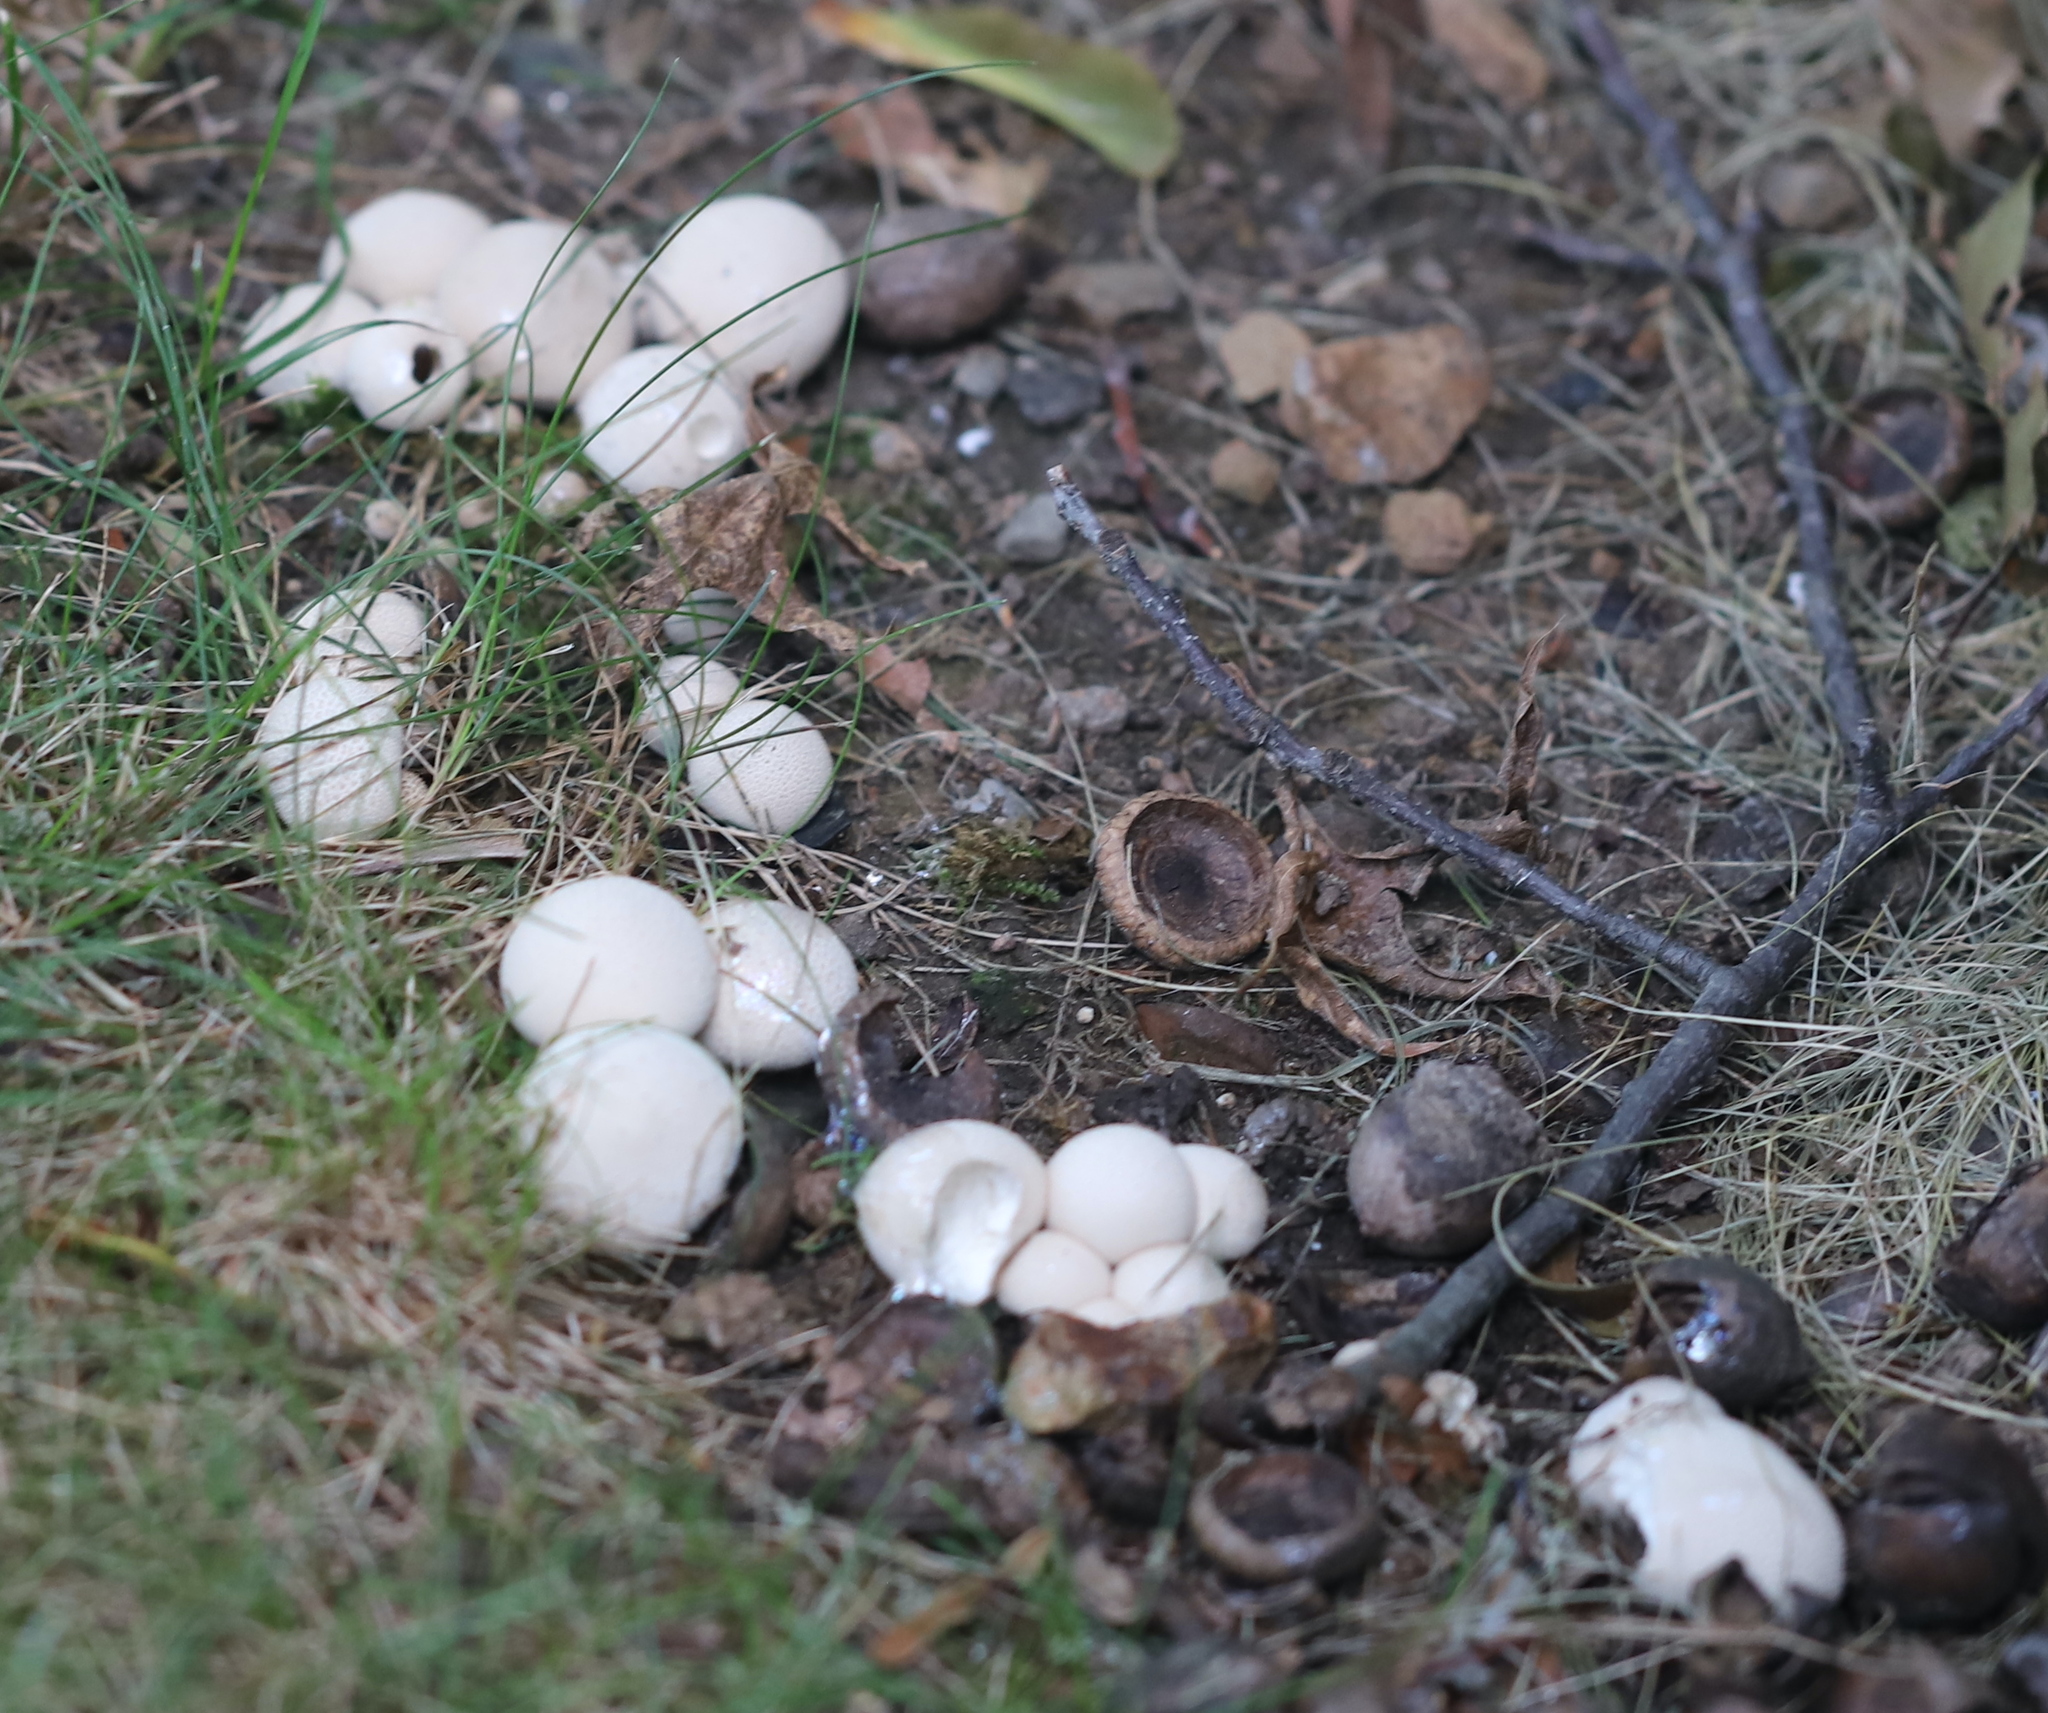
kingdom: Fungi
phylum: Basidiomycota
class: Agaricomycetes
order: Agaricales
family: Lycoperdaceae
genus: Apioperdon
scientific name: Apioperdon pyriforme
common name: Pear-shaped puffball
